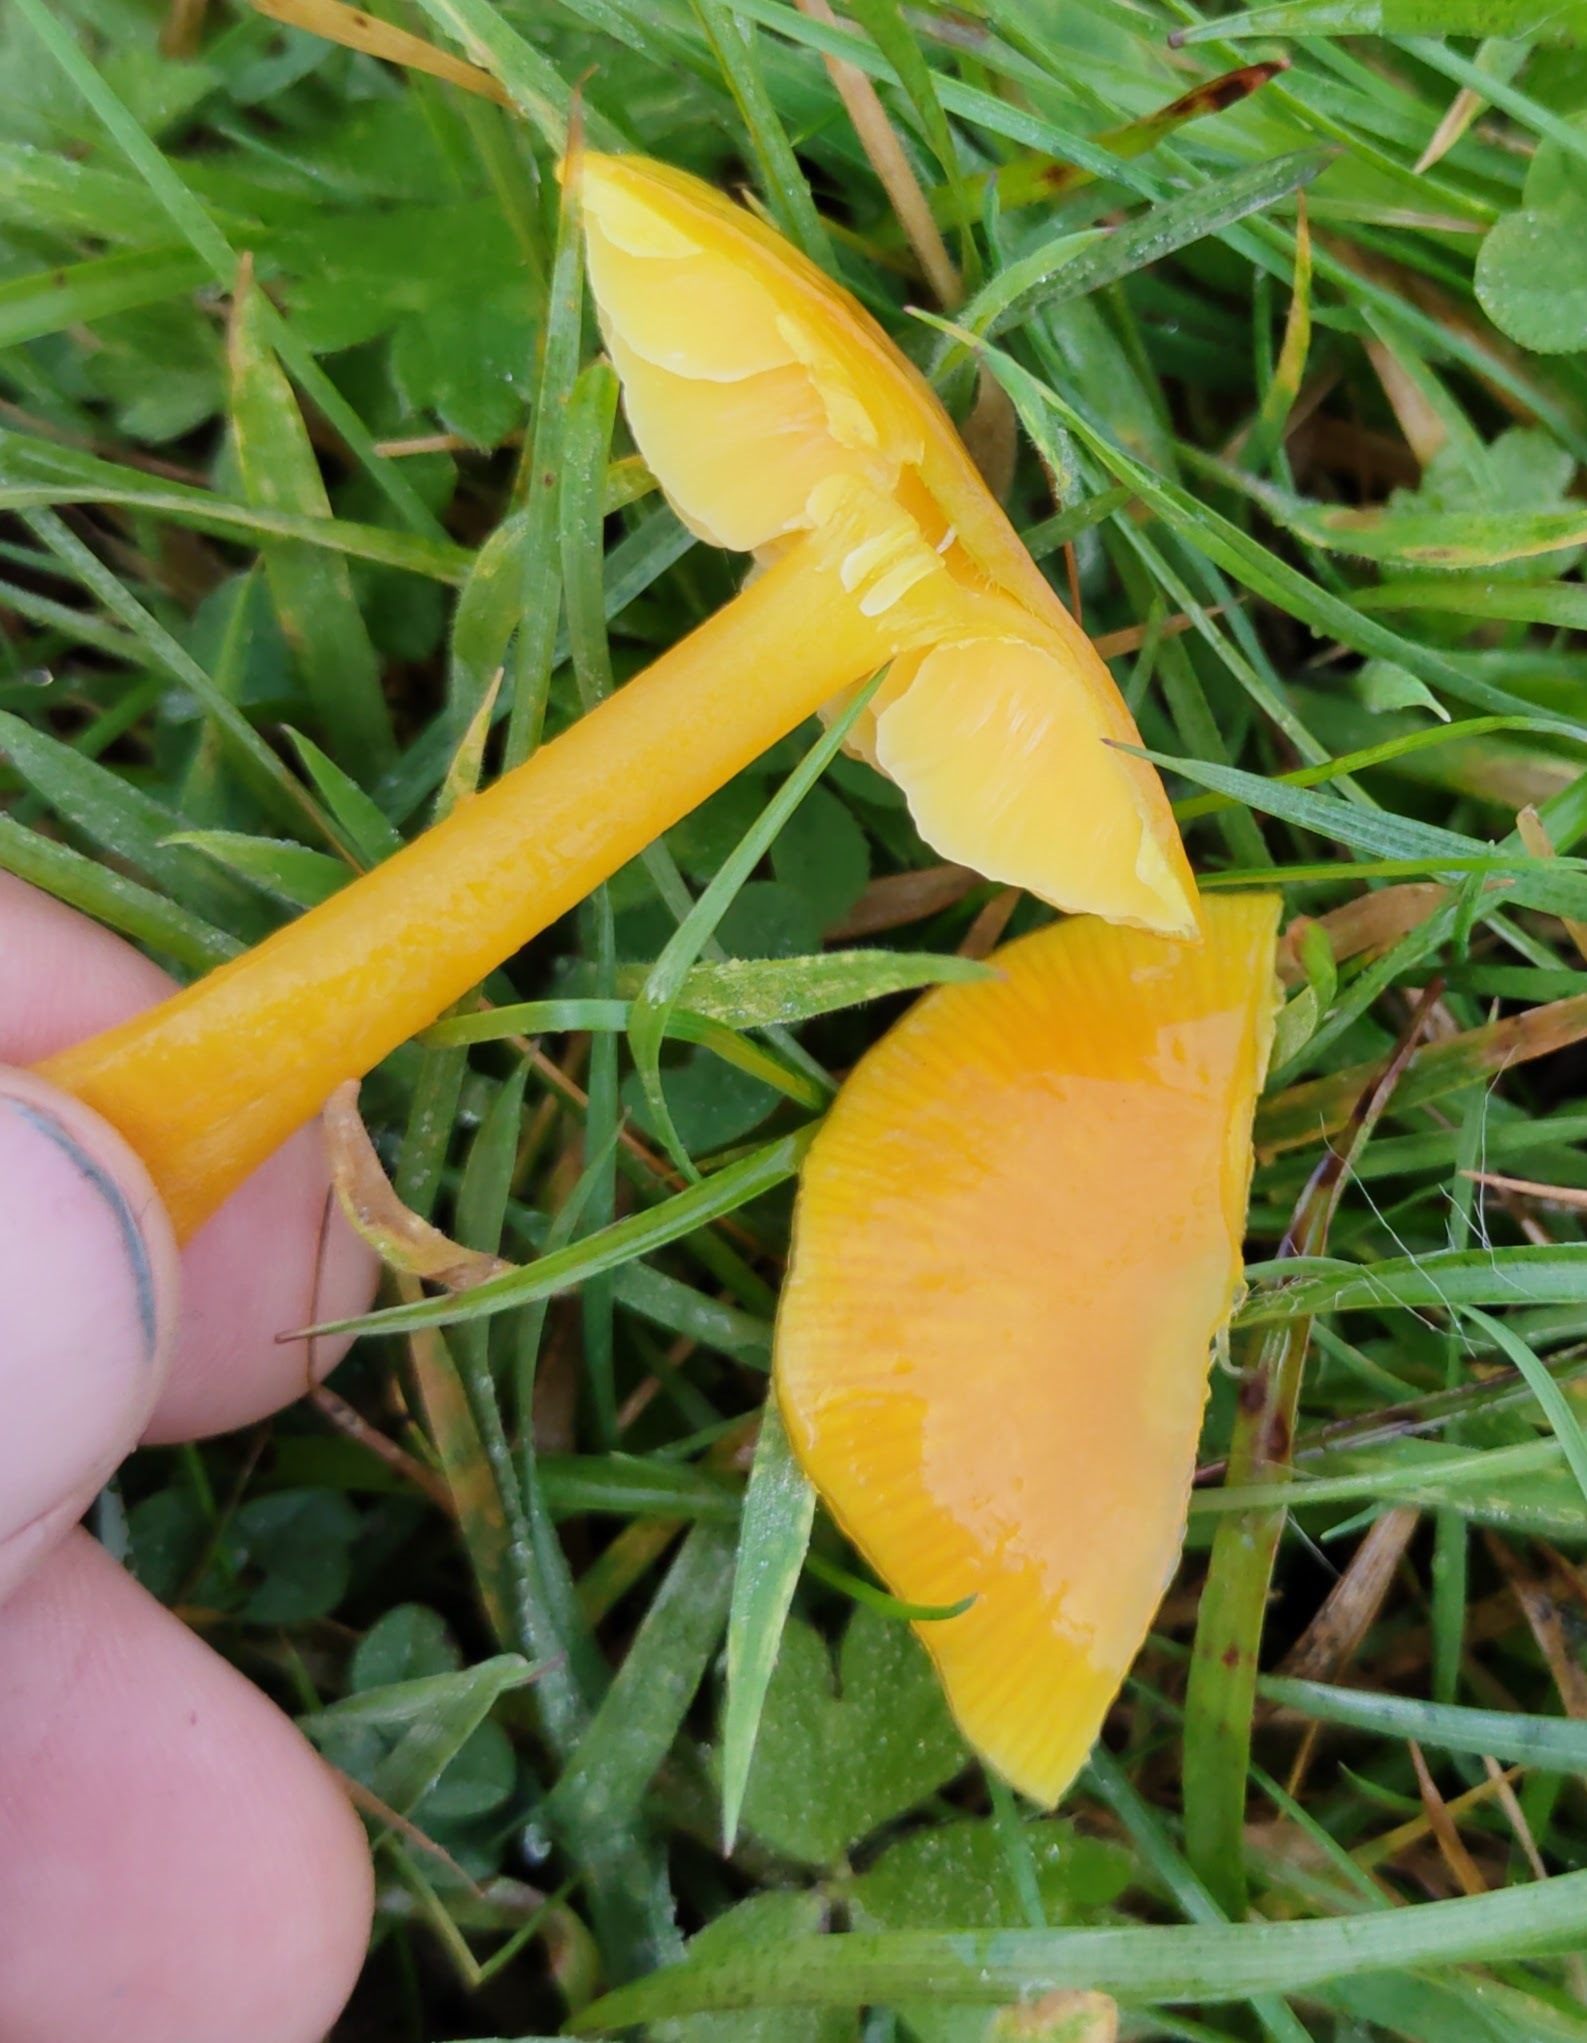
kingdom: Fungi
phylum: Basidiomycota
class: Agaricomycetes
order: Agaricales
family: Hygrophoraceae
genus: Hygrocybe
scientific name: Hygrocybe chlorophana
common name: Golden waxcap
